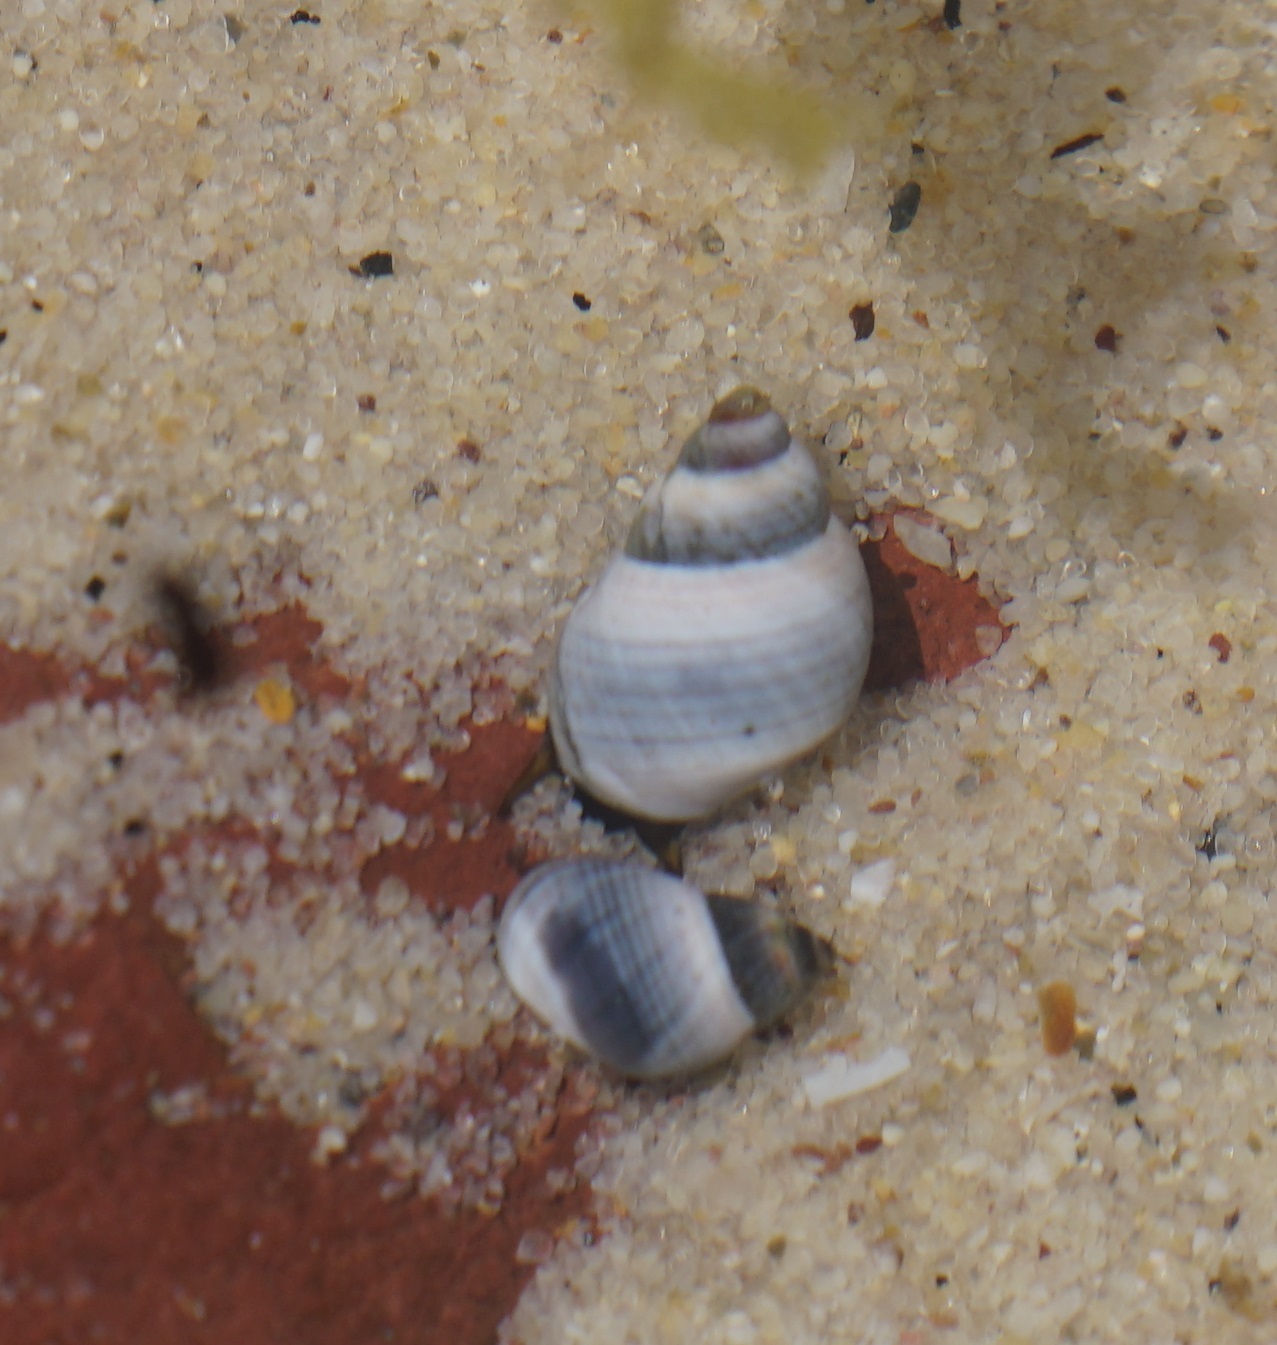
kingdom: Animalia
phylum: Mollusca
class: Gastropoda
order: Littorinimorpha
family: Littorinidae
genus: Austrolittorina
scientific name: Austrolittorina unifasciata
